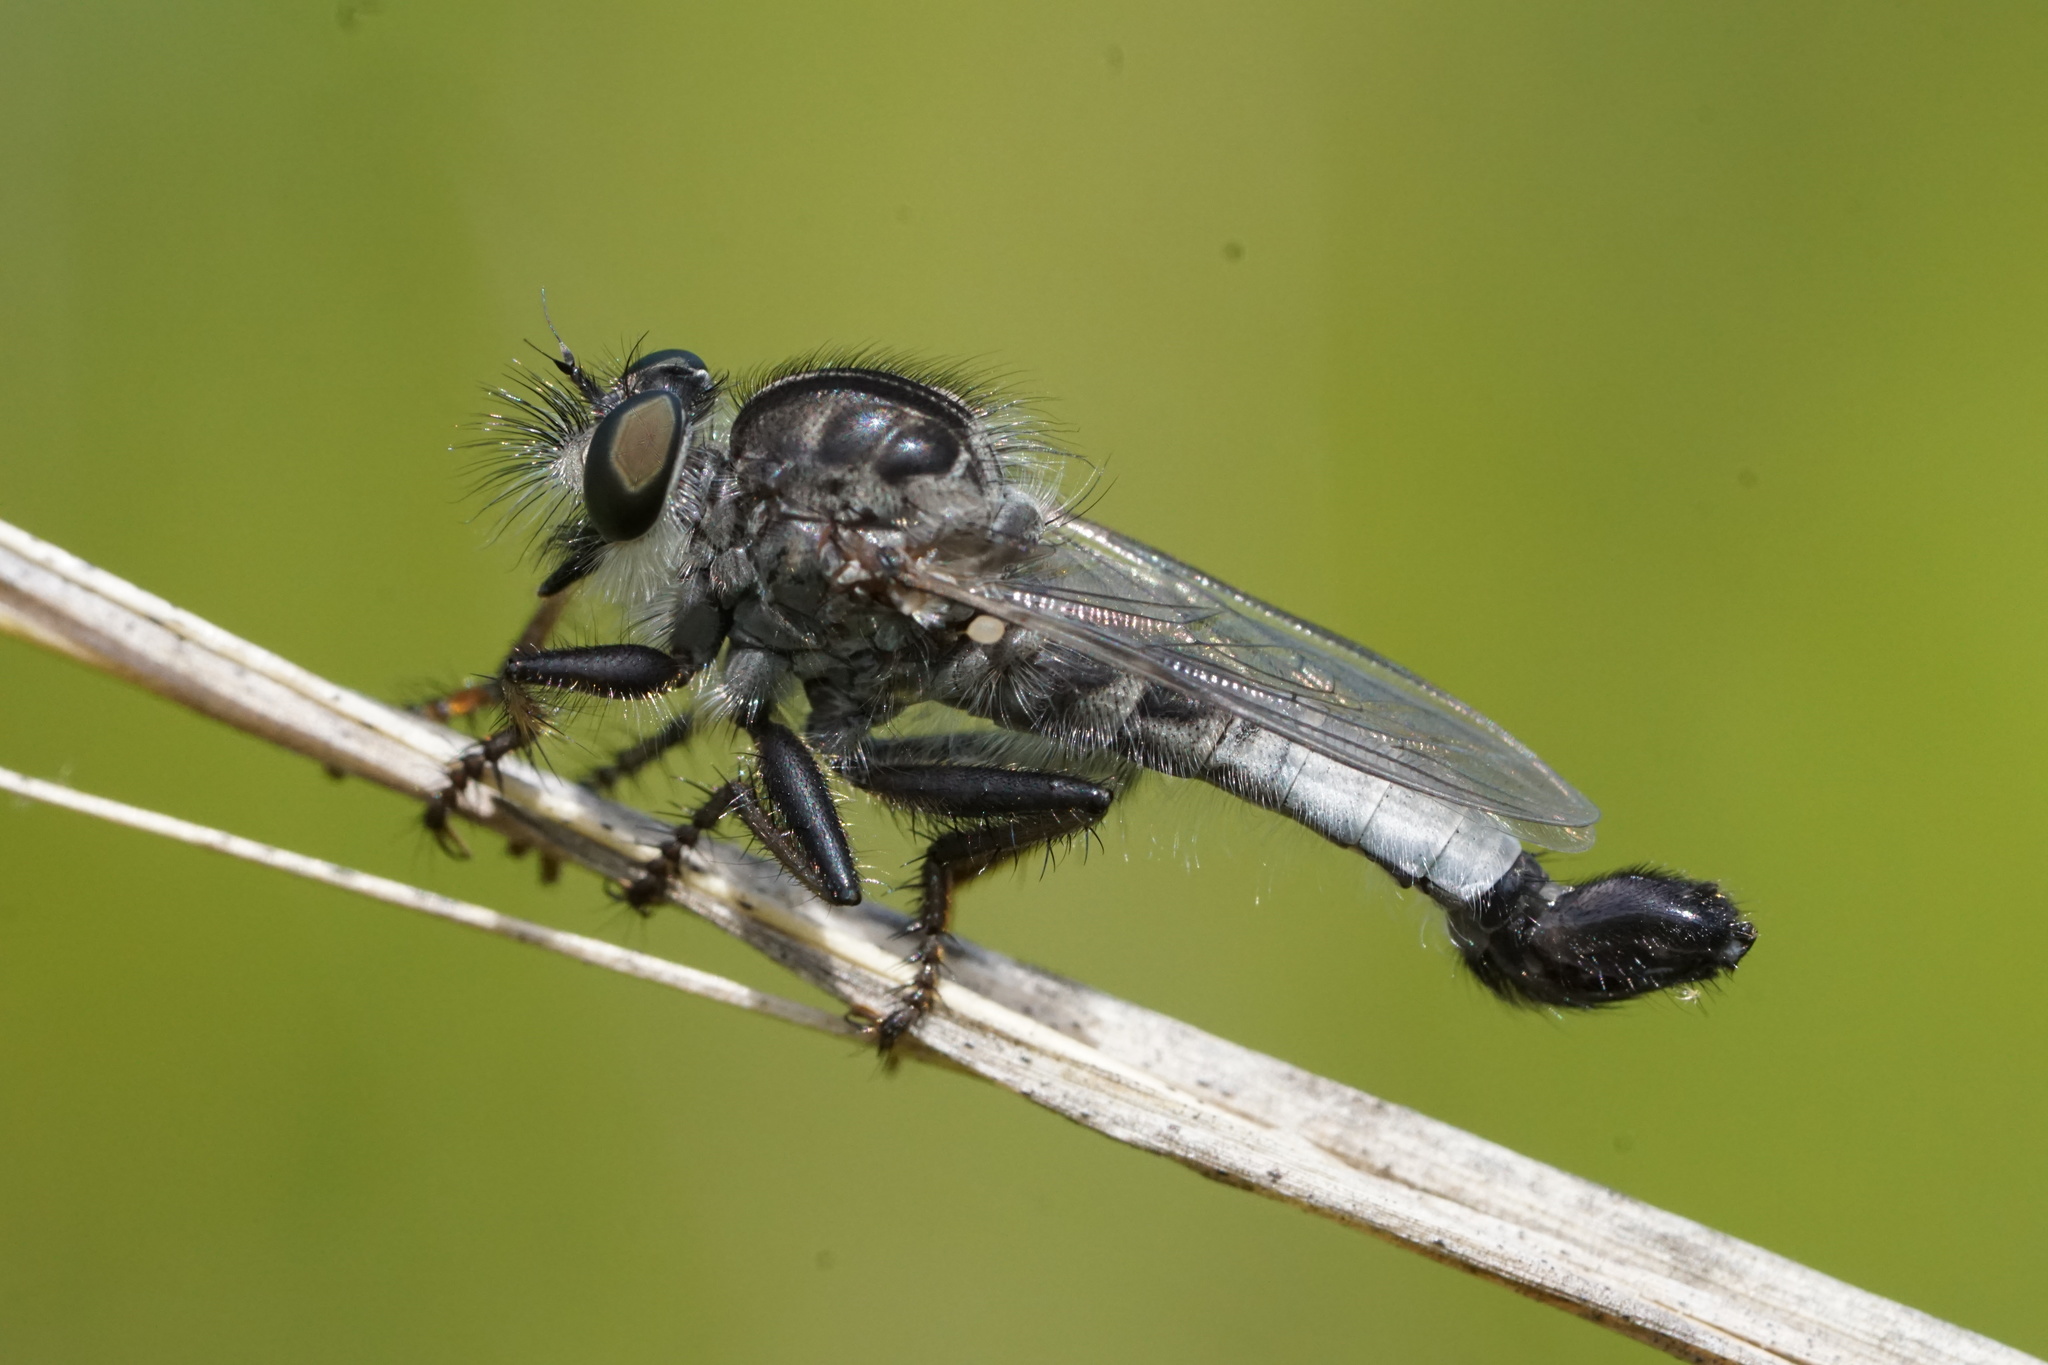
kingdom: Animalia
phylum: Arthropoda
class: Insecta
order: Diptera
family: Asilidae
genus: Efferia
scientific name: Efferia aestuans
